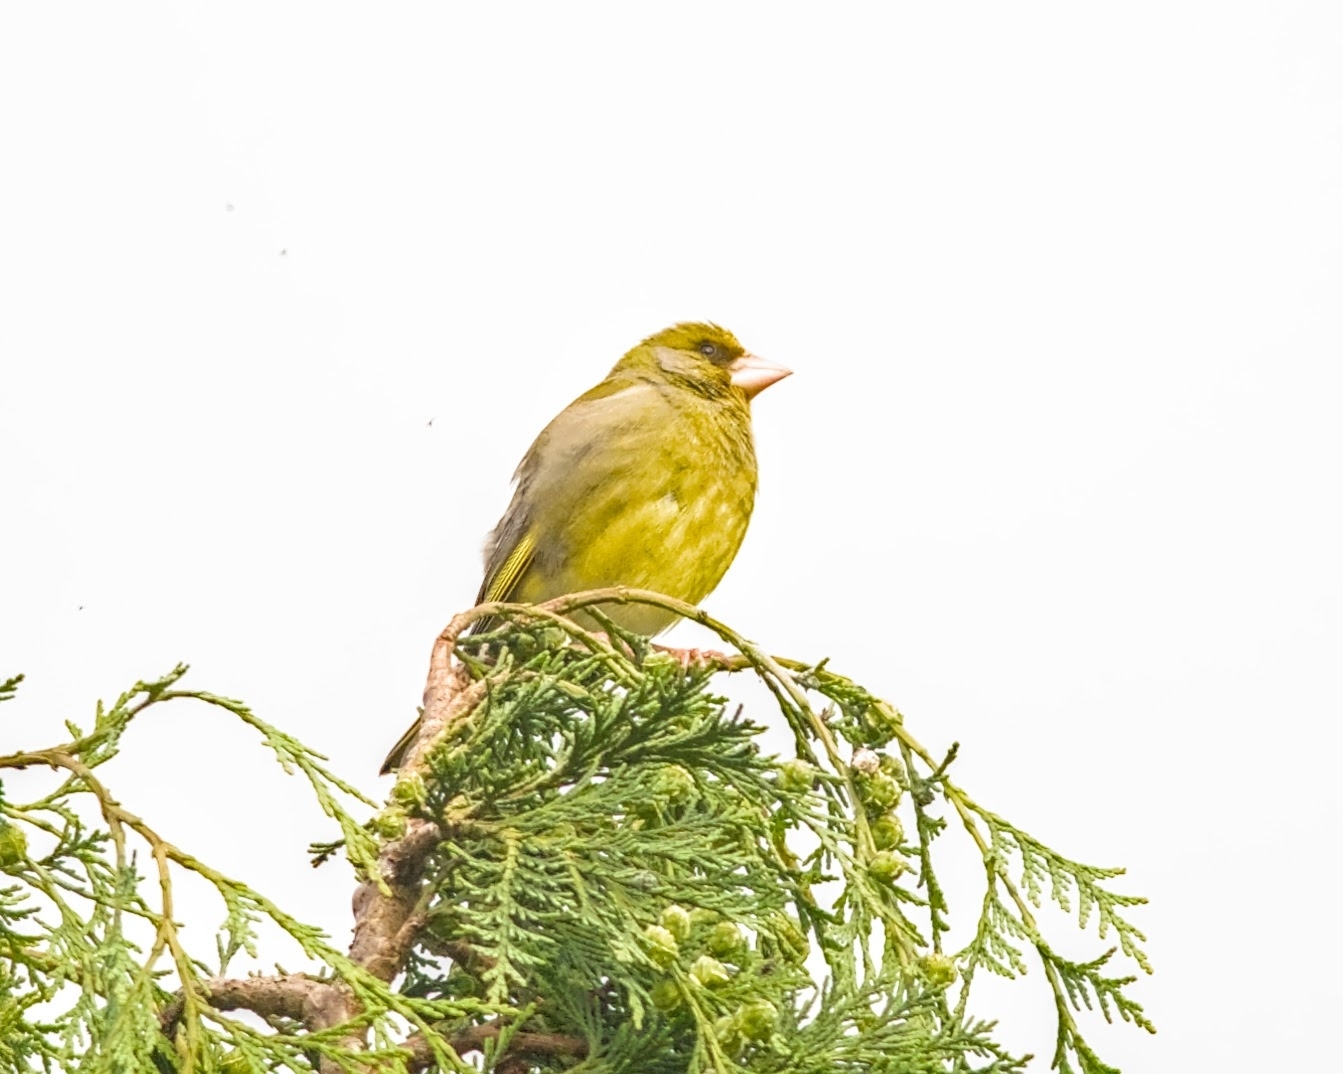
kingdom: Plantae
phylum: Tracheophyta
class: Liliopsida
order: Poales
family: Poaceae
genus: Chloris
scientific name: Chloris chloris
